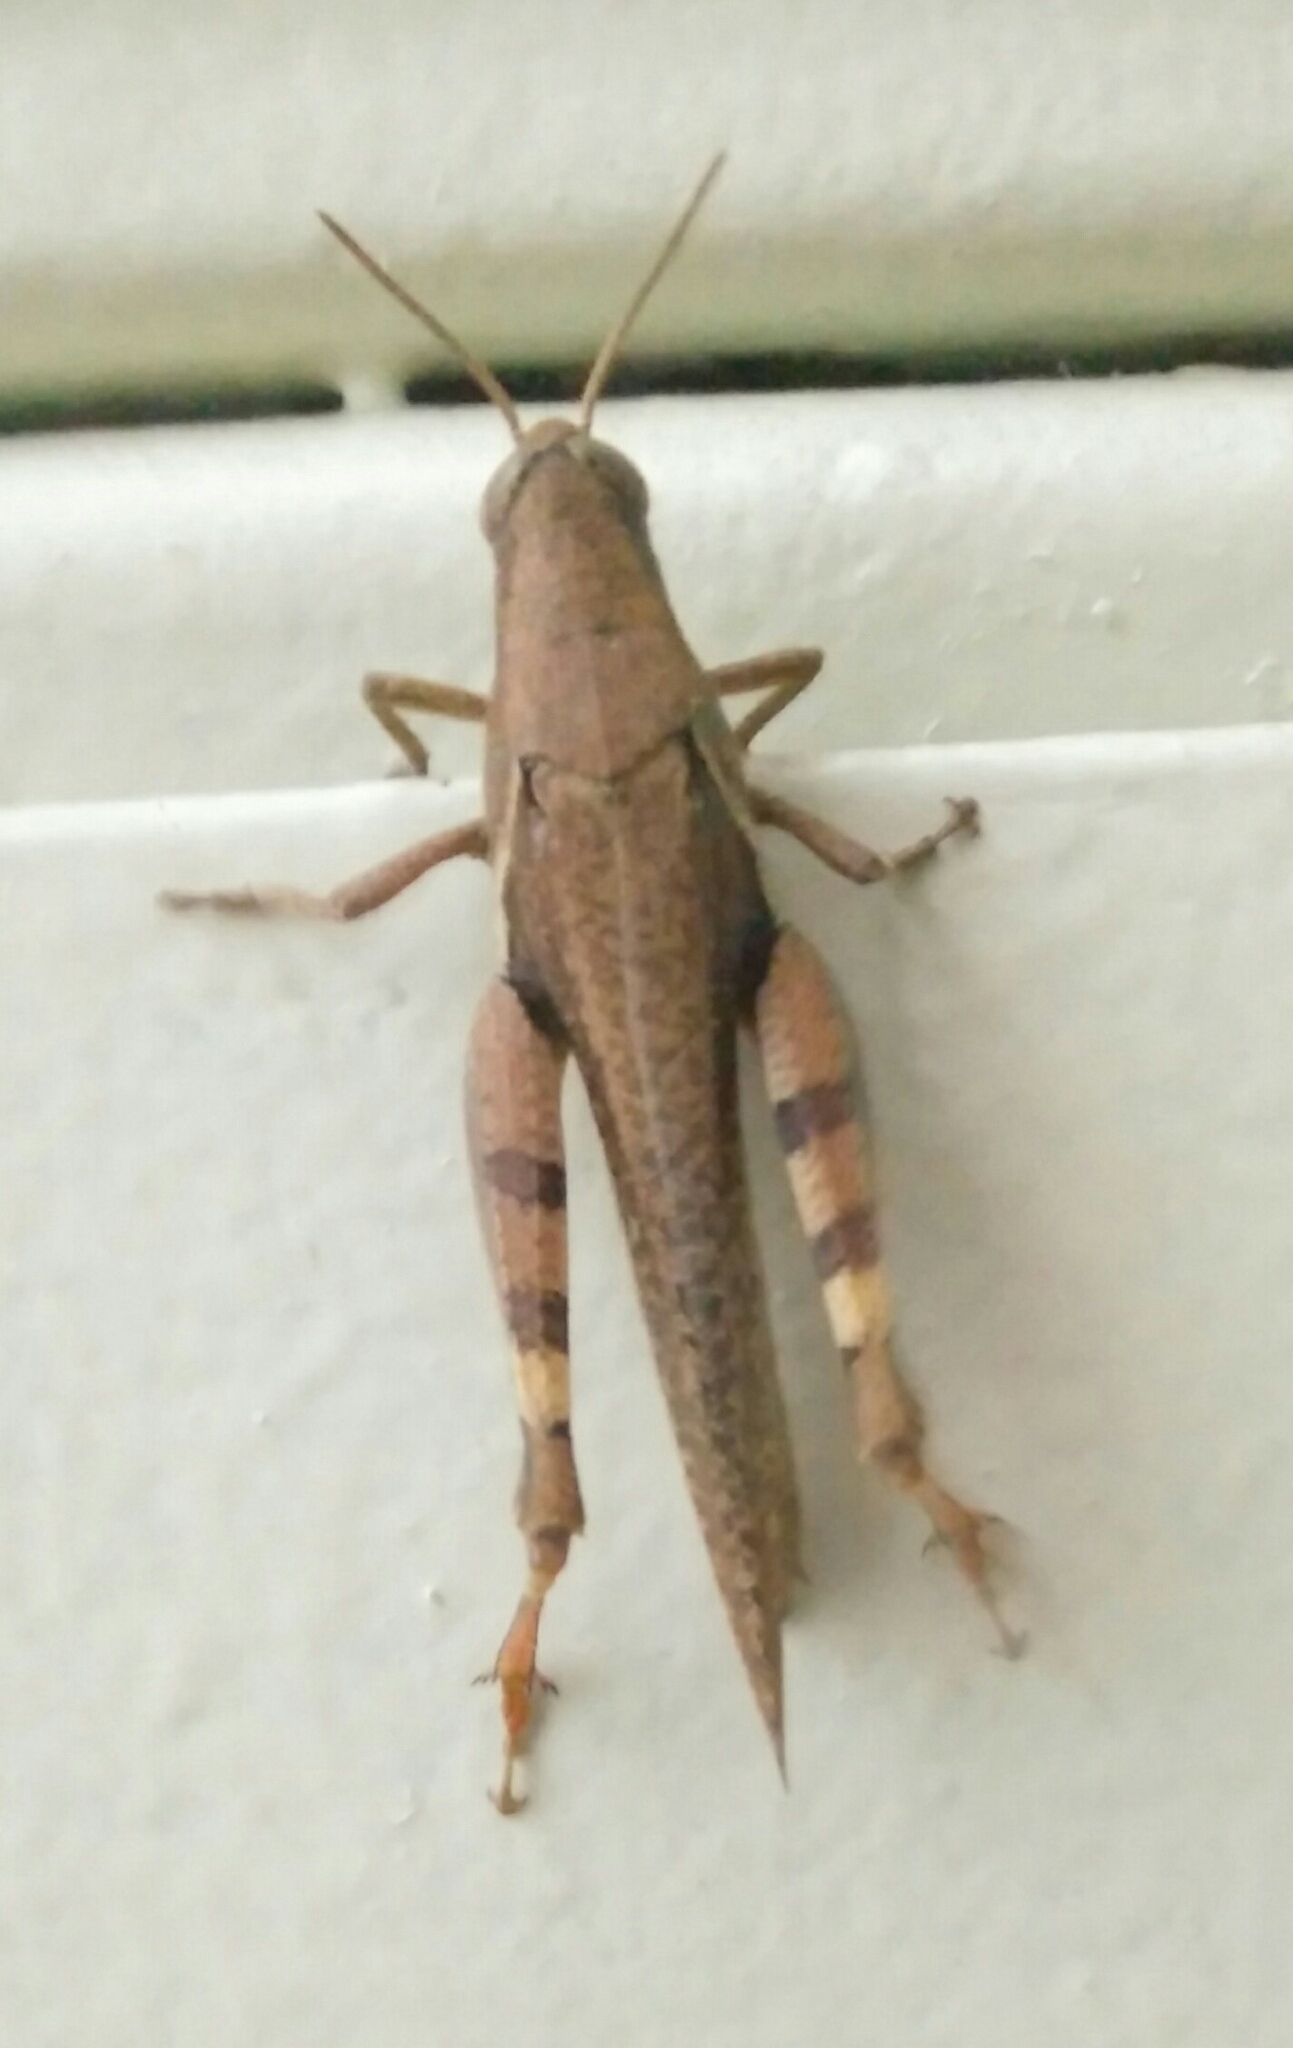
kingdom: Animalia
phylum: Arthropoda
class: Insecta
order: Orthoptera
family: Acrididae
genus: Diabolocatantops
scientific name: Diabolocatantops innotabilis
